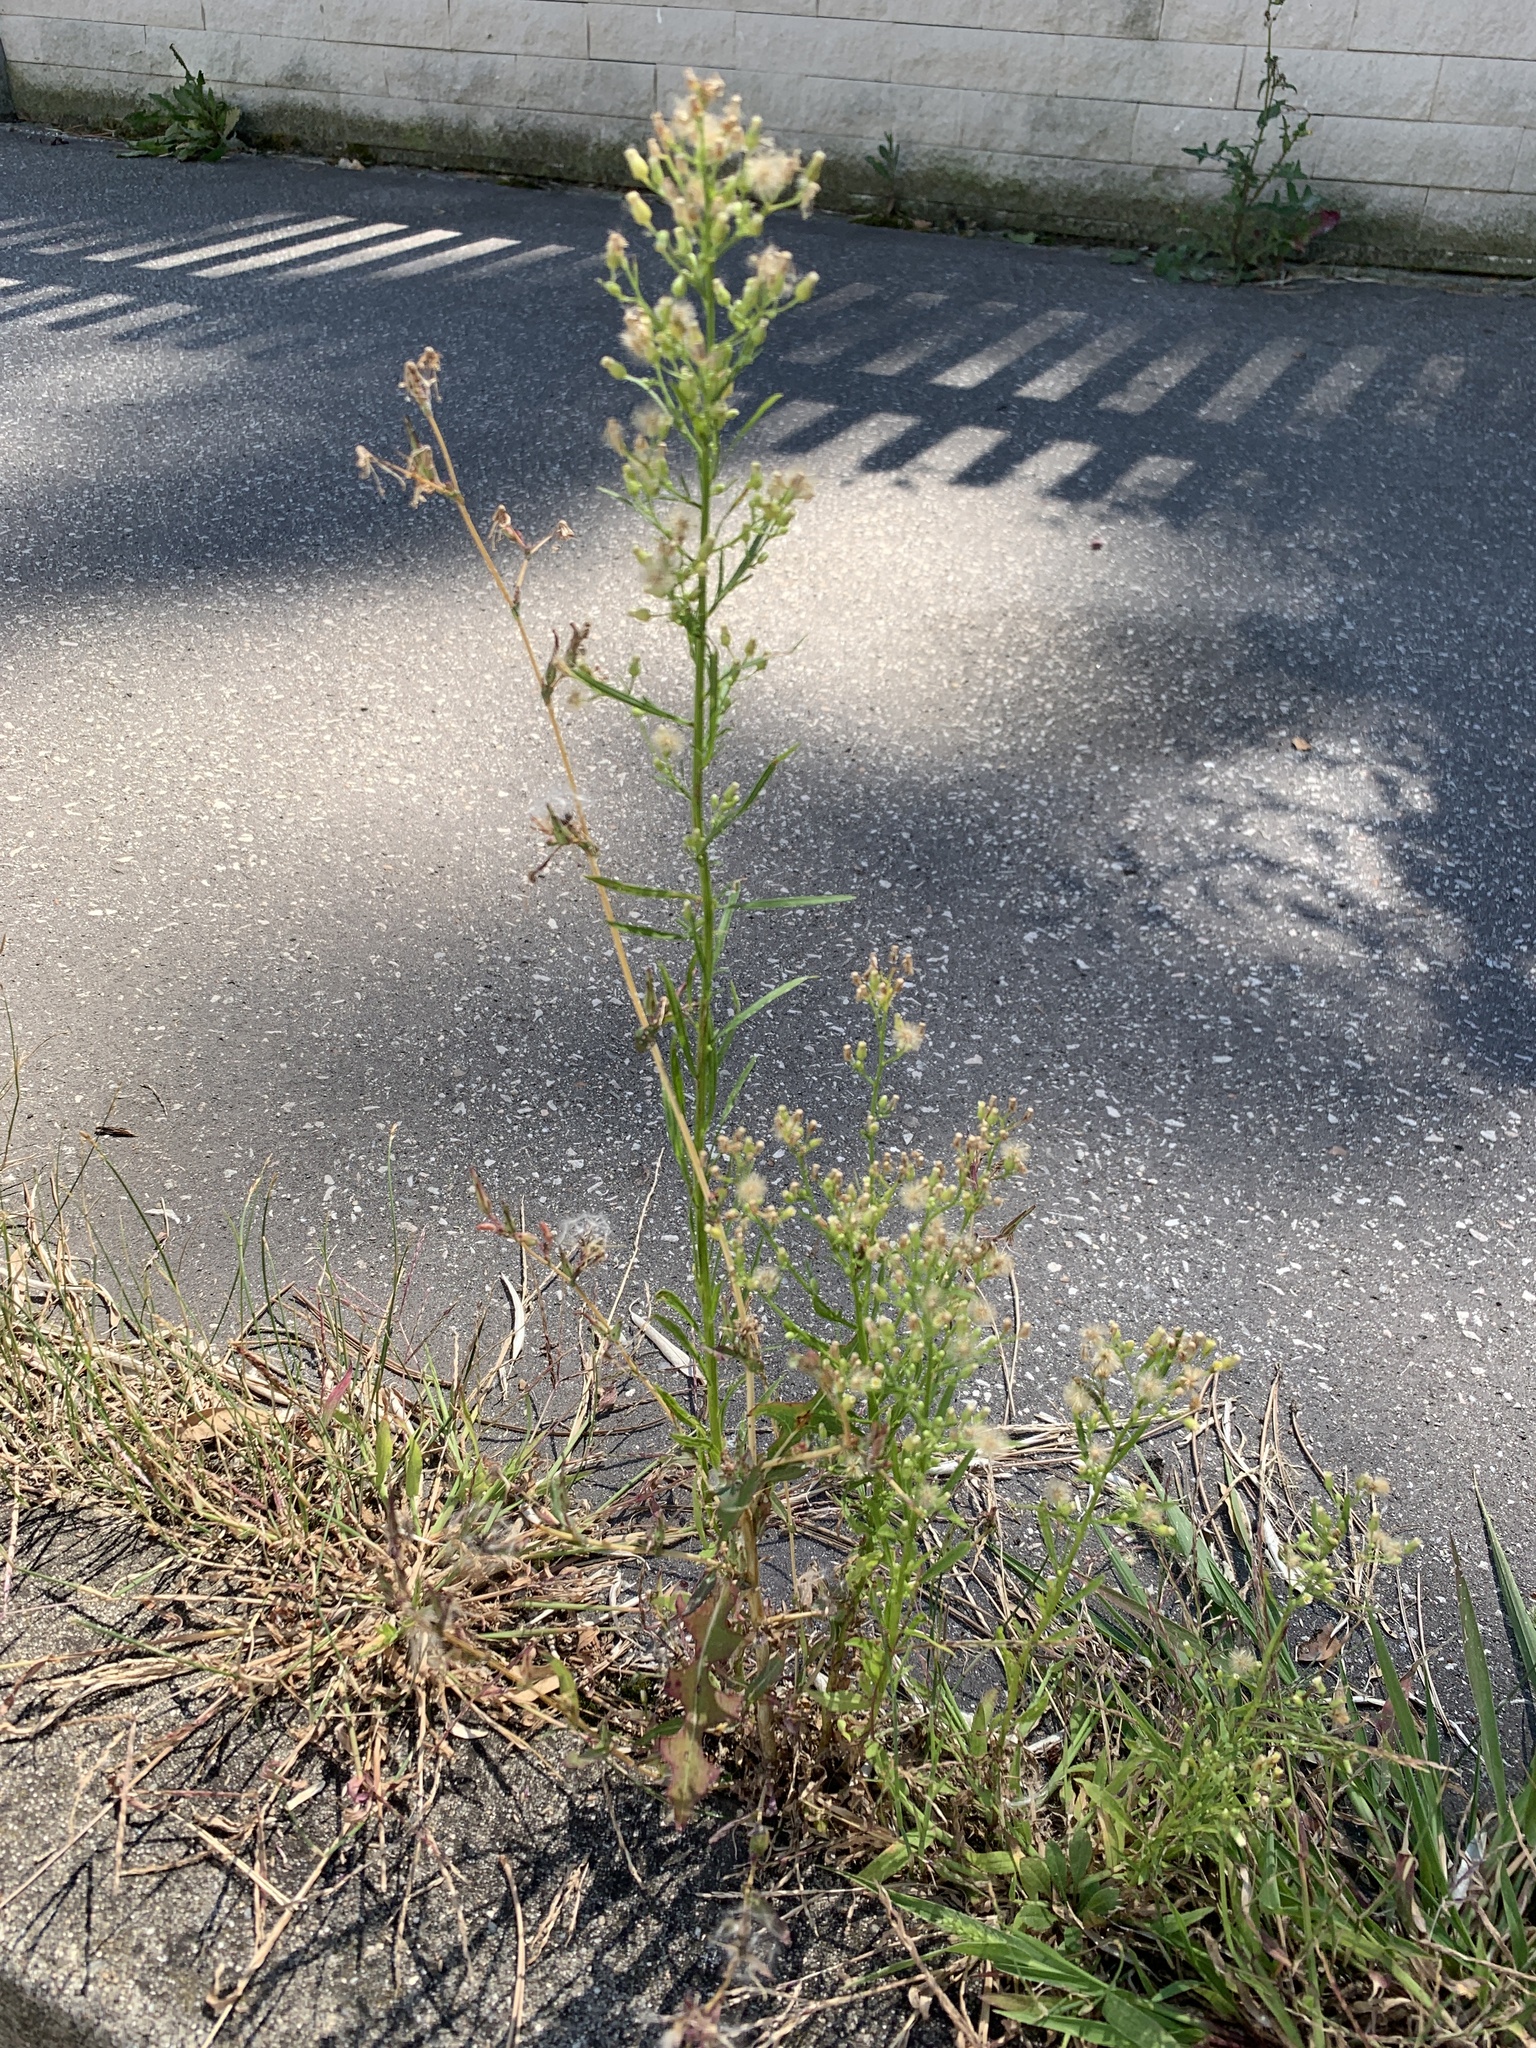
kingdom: Plantae
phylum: Tracheophyta
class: Magnoliopsida
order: Asterales
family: Asteraceae
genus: Erigeron
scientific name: Erigeron canadensis
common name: Canadian fleabane
